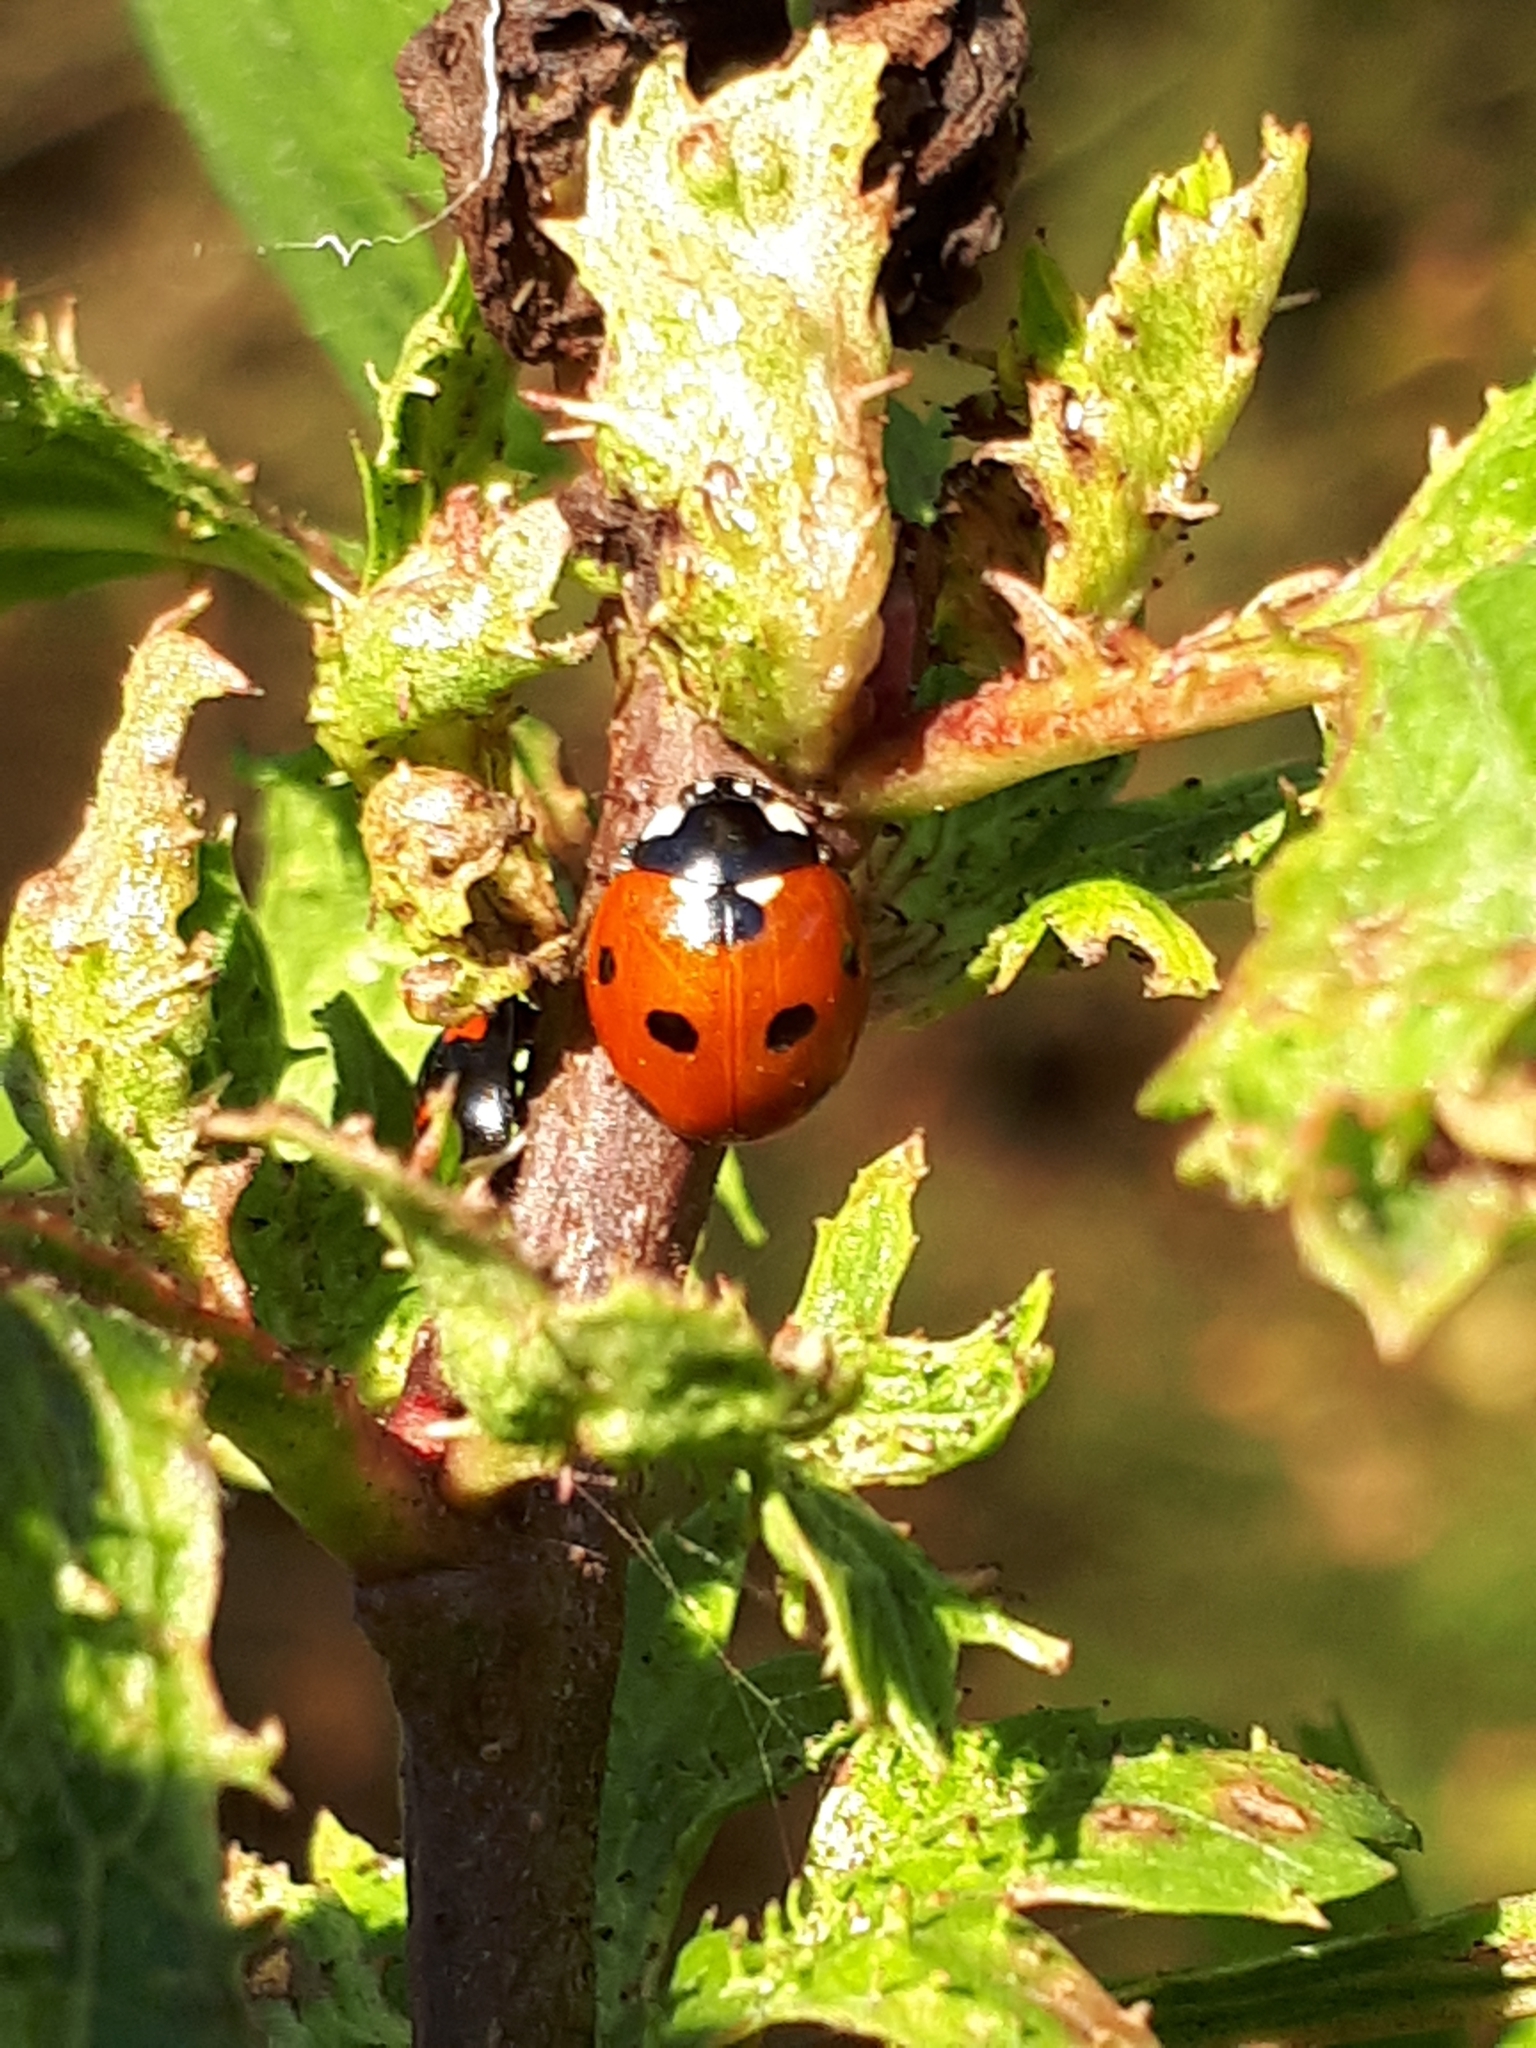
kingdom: Animalia
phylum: Arthropoda
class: Insecta
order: Coleoptera
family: Coccinellidae
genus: Coccinella
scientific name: Coccinella septempunctata
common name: Sevenspotted lady beetle
